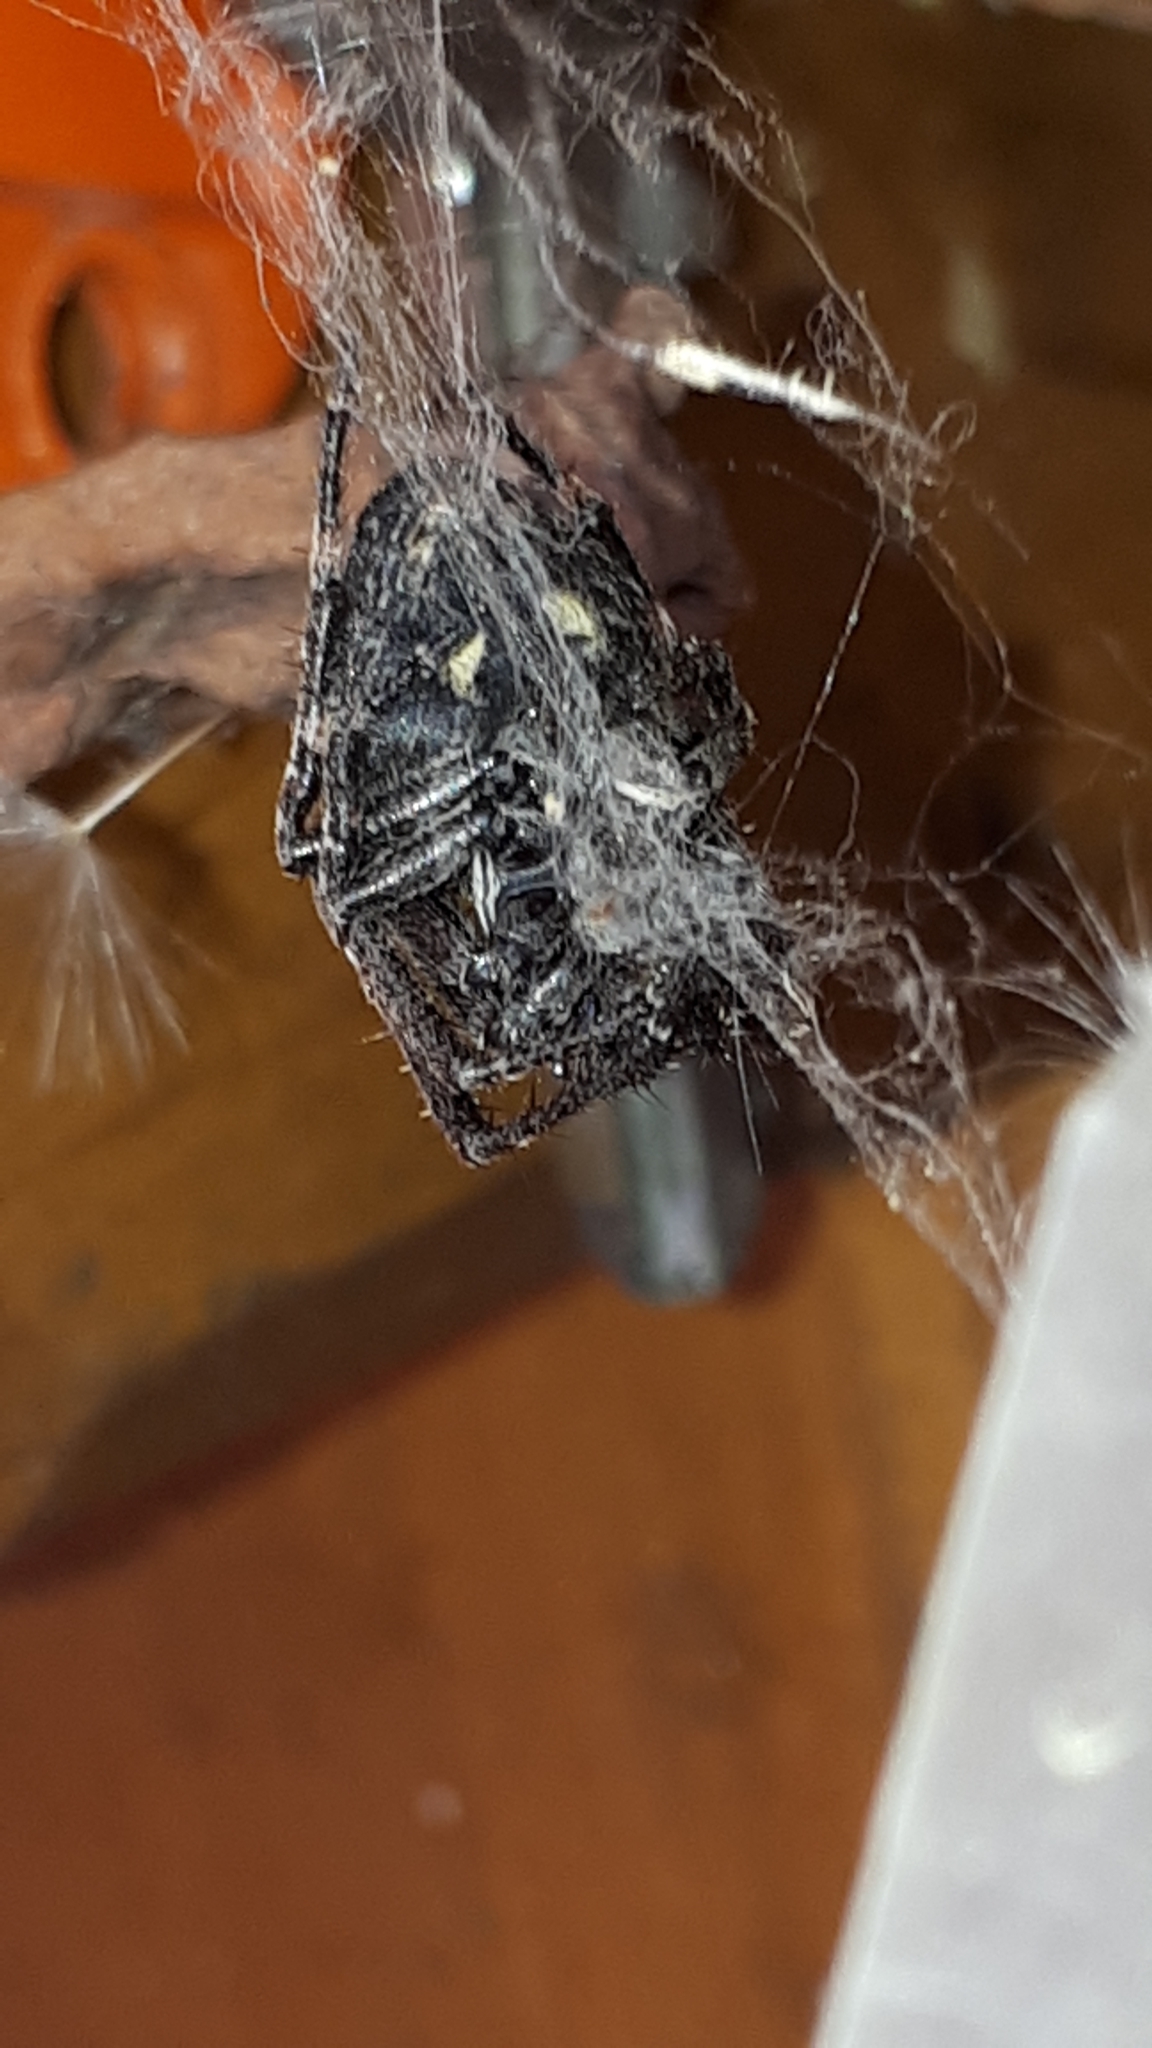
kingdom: Animalia
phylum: Arthropoda
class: Arachnida
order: Araneae
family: Araneidae
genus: Nuctenea
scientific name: Nuctenea umbratica
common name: Toad spider
